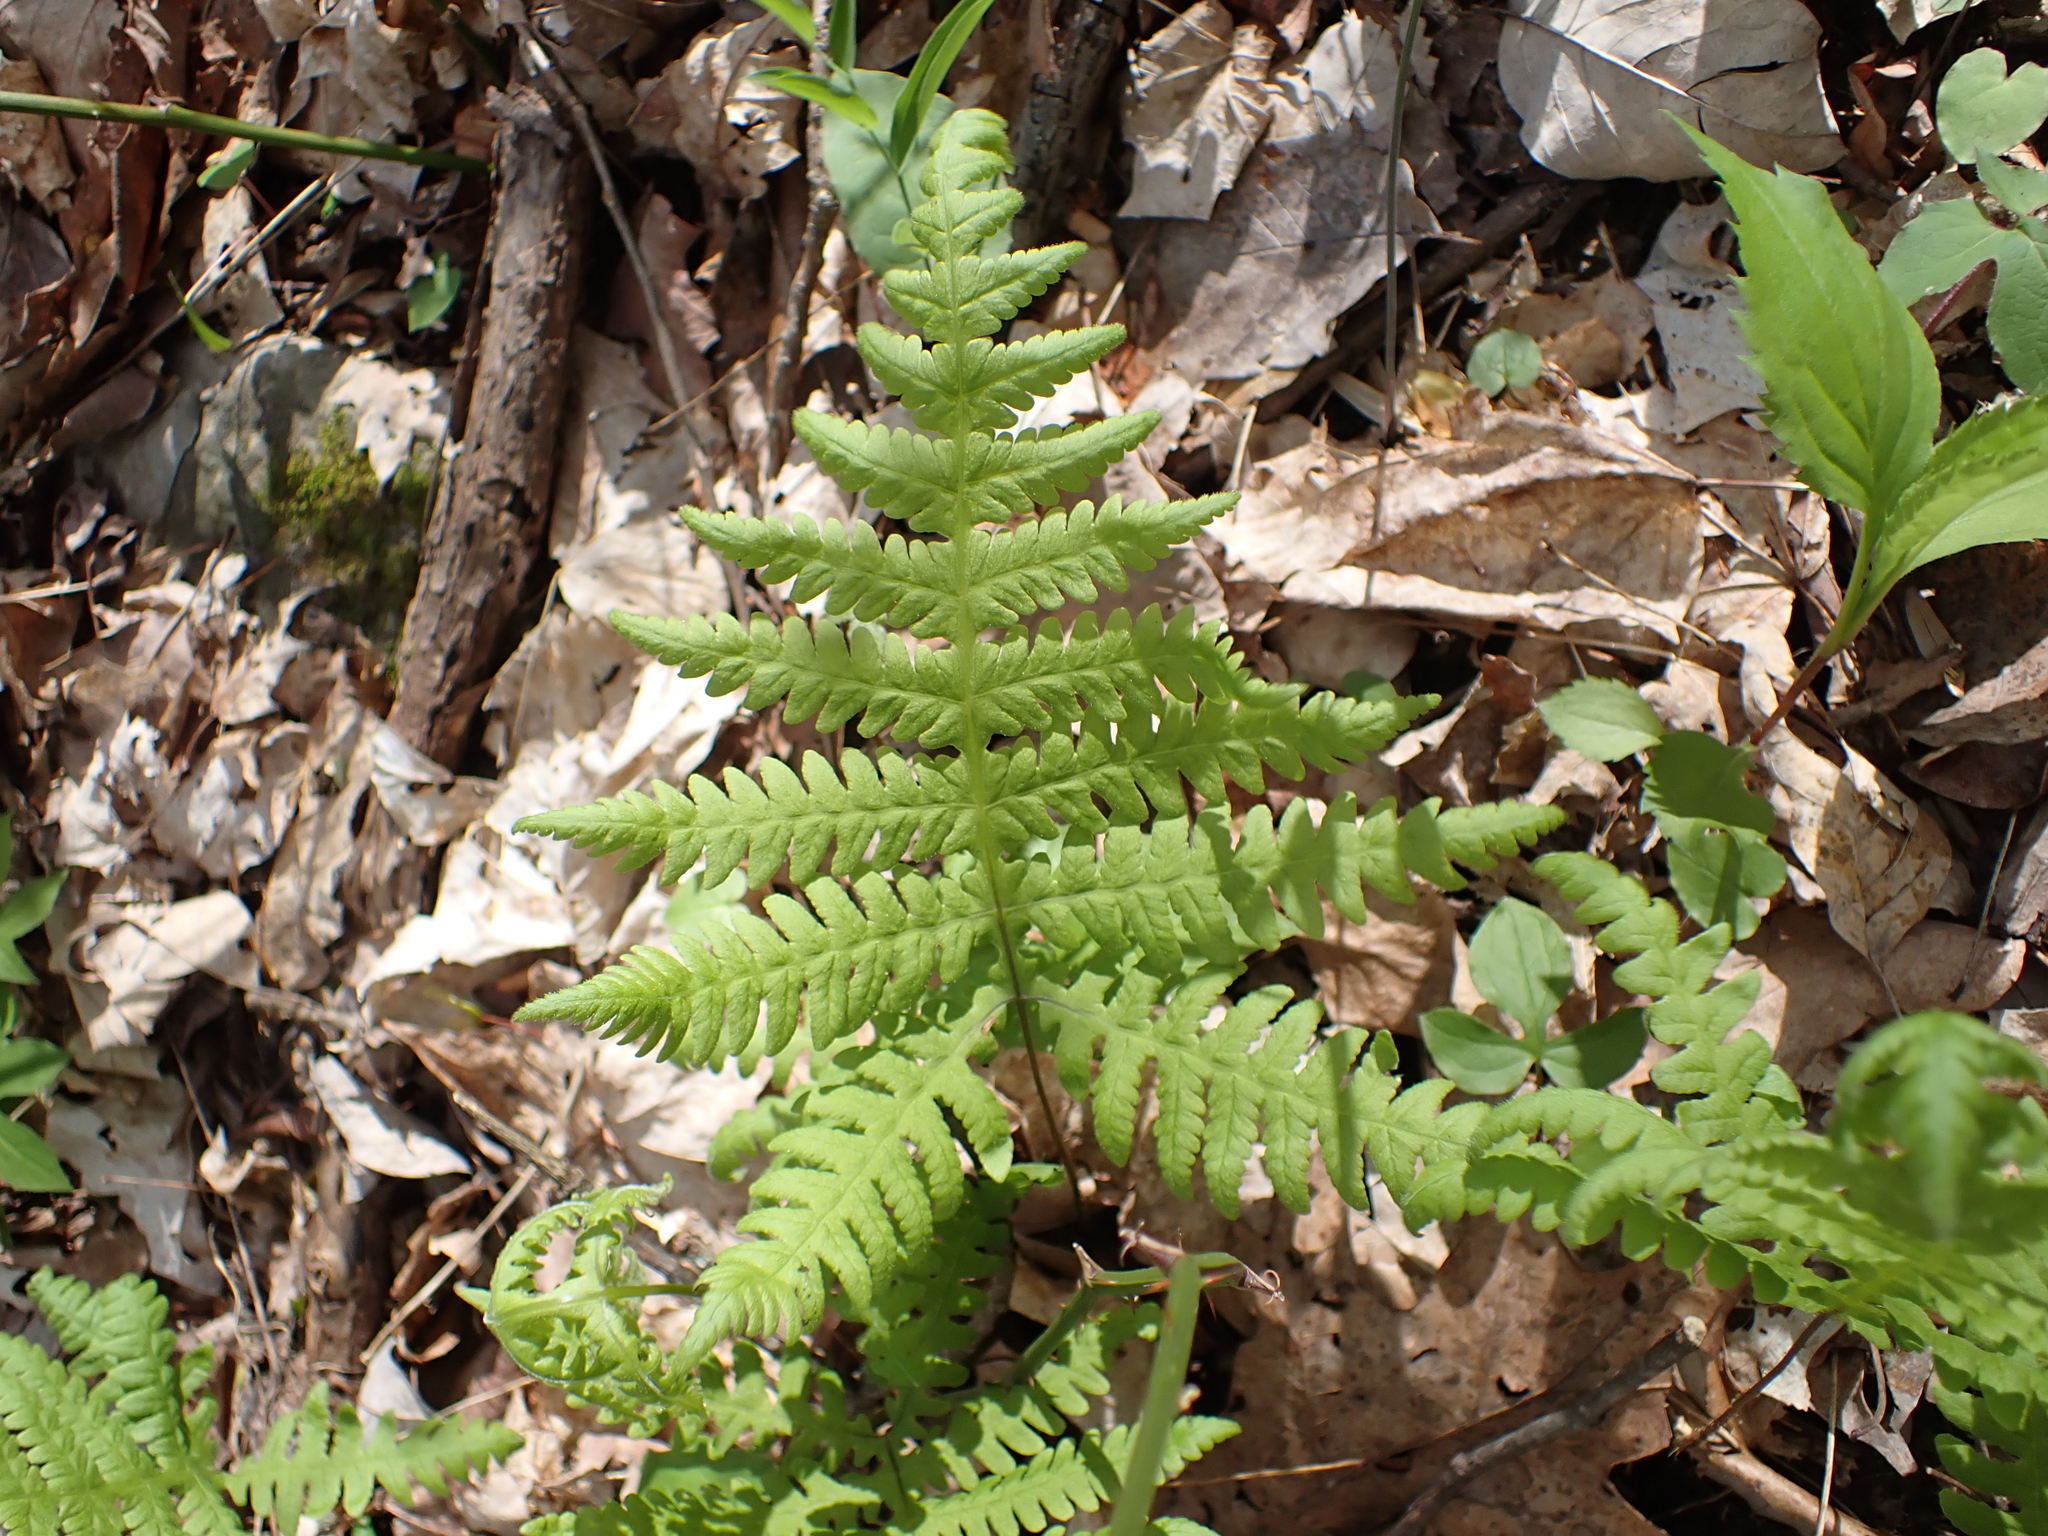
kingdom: Plantae
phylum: Tracheophyta
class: Polypodiopsida
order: Polypodiales
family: Thelypteridaceae
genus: Phegopteris
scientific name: Phegopteris hexagonoptera
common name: Broad beech fern
